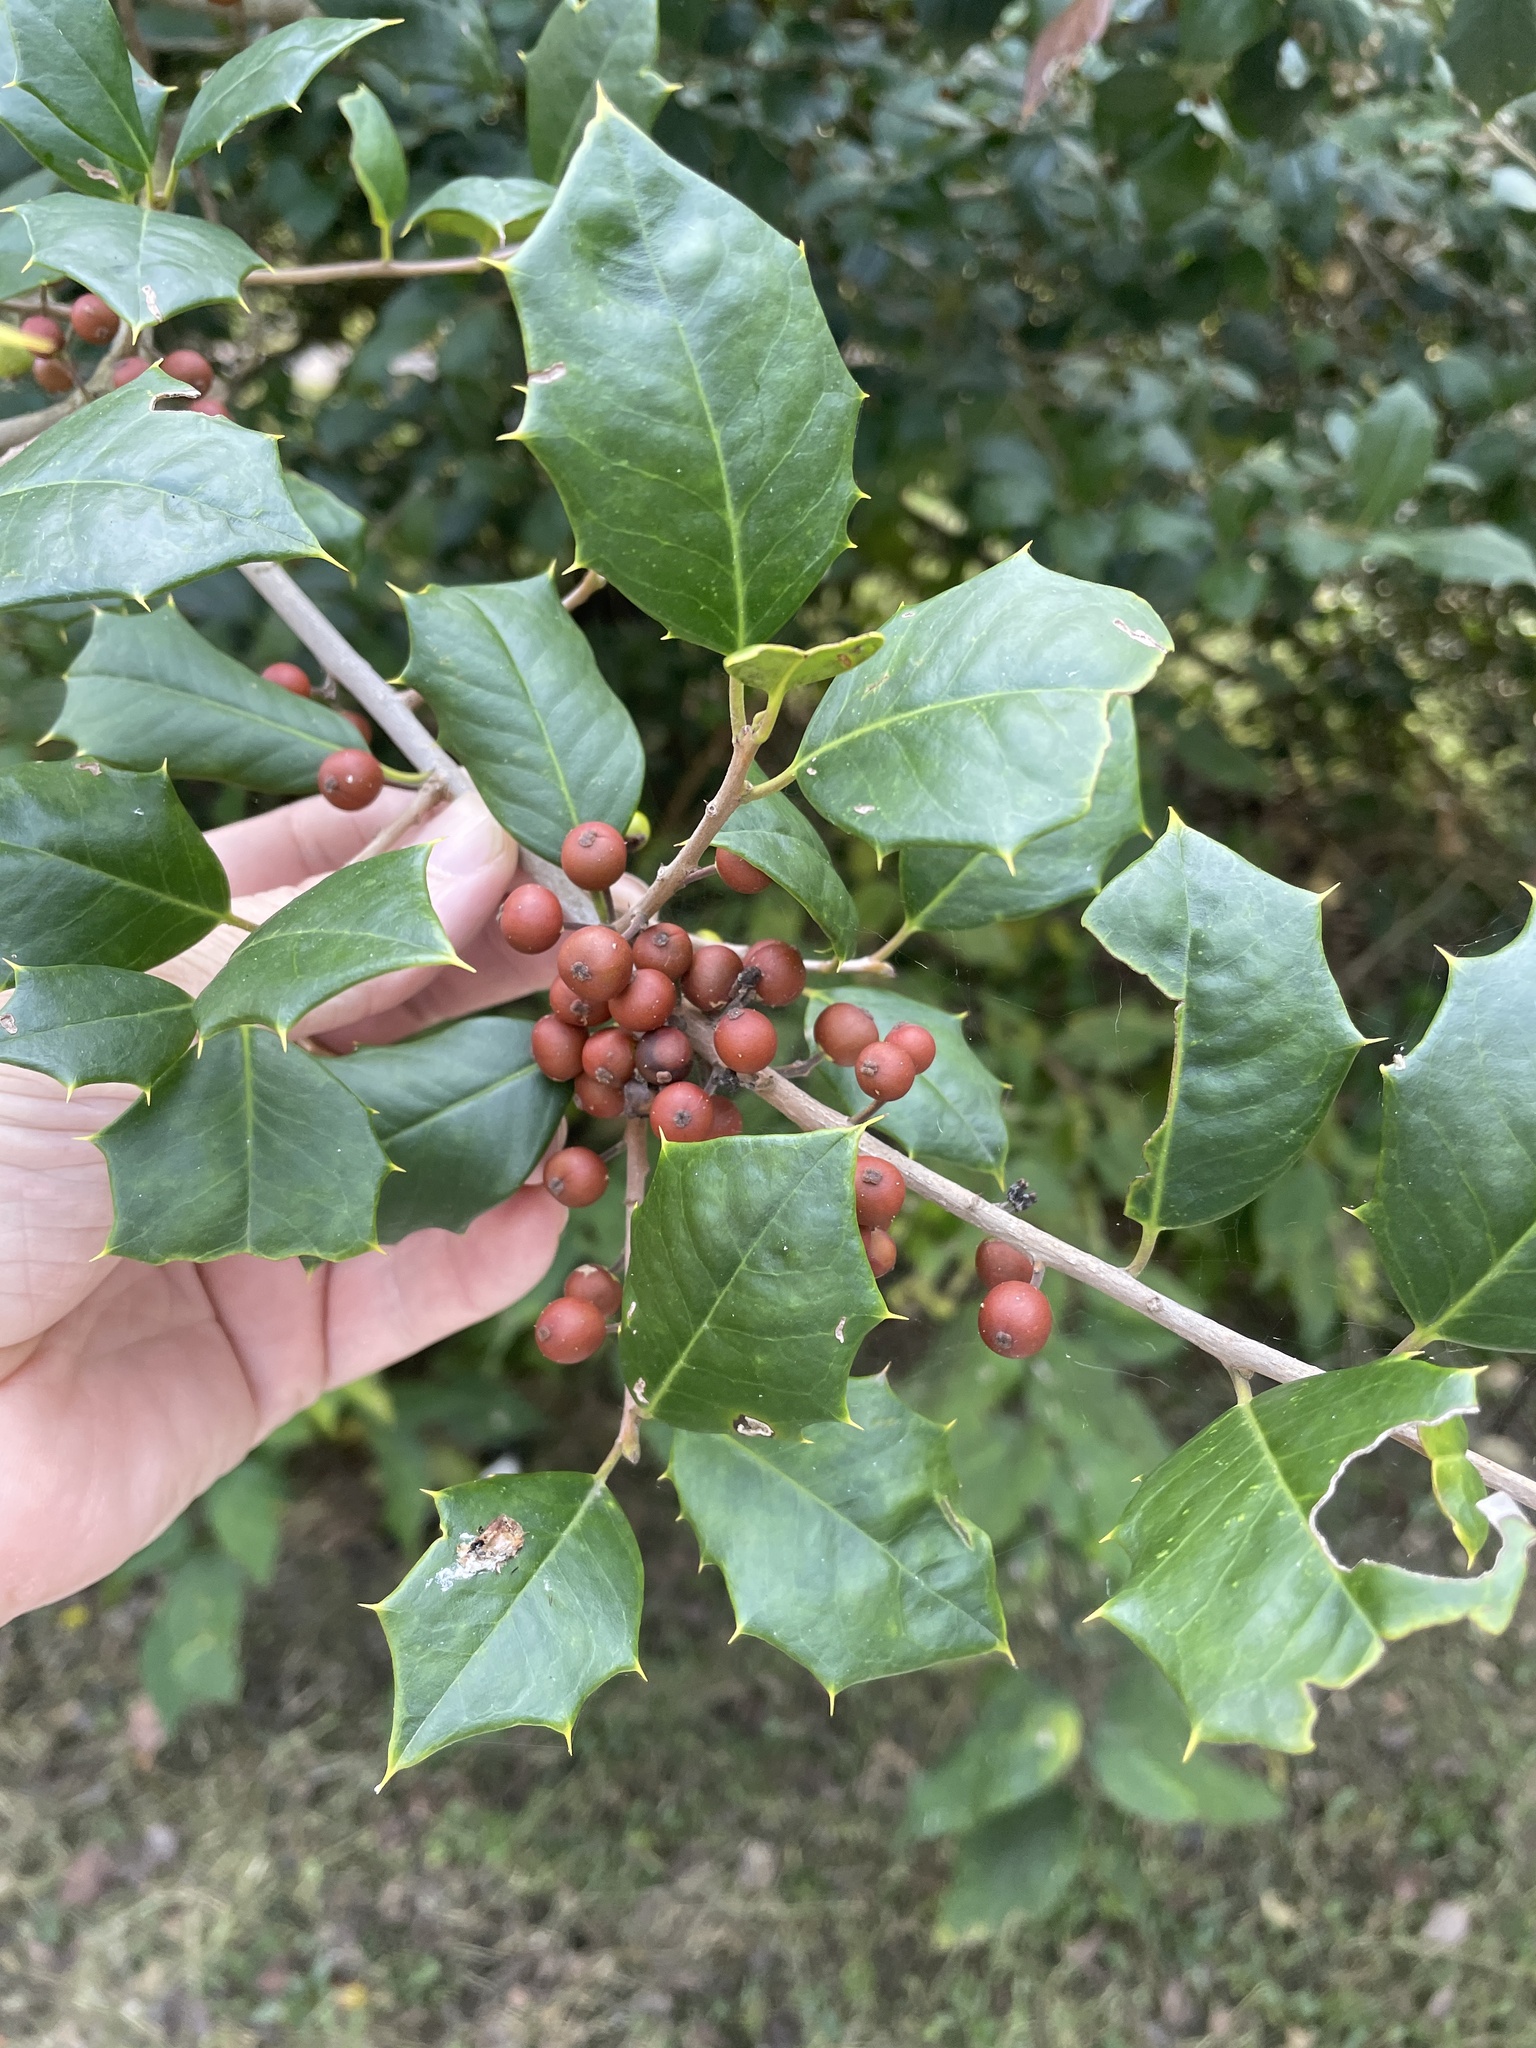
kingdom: Plantae
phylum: Tracheophyta
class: Magnoliopsida
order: Aquifoliales
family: Aquifoliaceae
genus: Ilex
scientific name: Ilex opaca
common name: American holly
